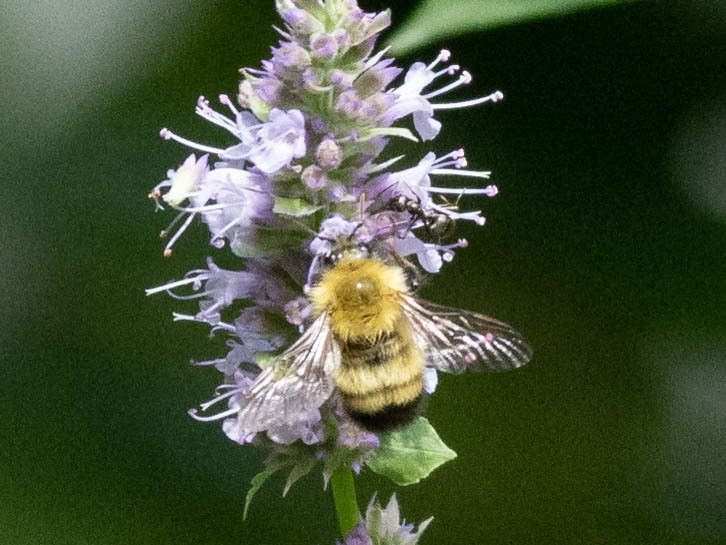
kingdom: Animalia
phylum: Arthropoda
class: Insecta
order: Hymenoptera
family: Apidae
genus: Bombus
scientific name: Bombus perplexus
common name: Confusing bumble bee
